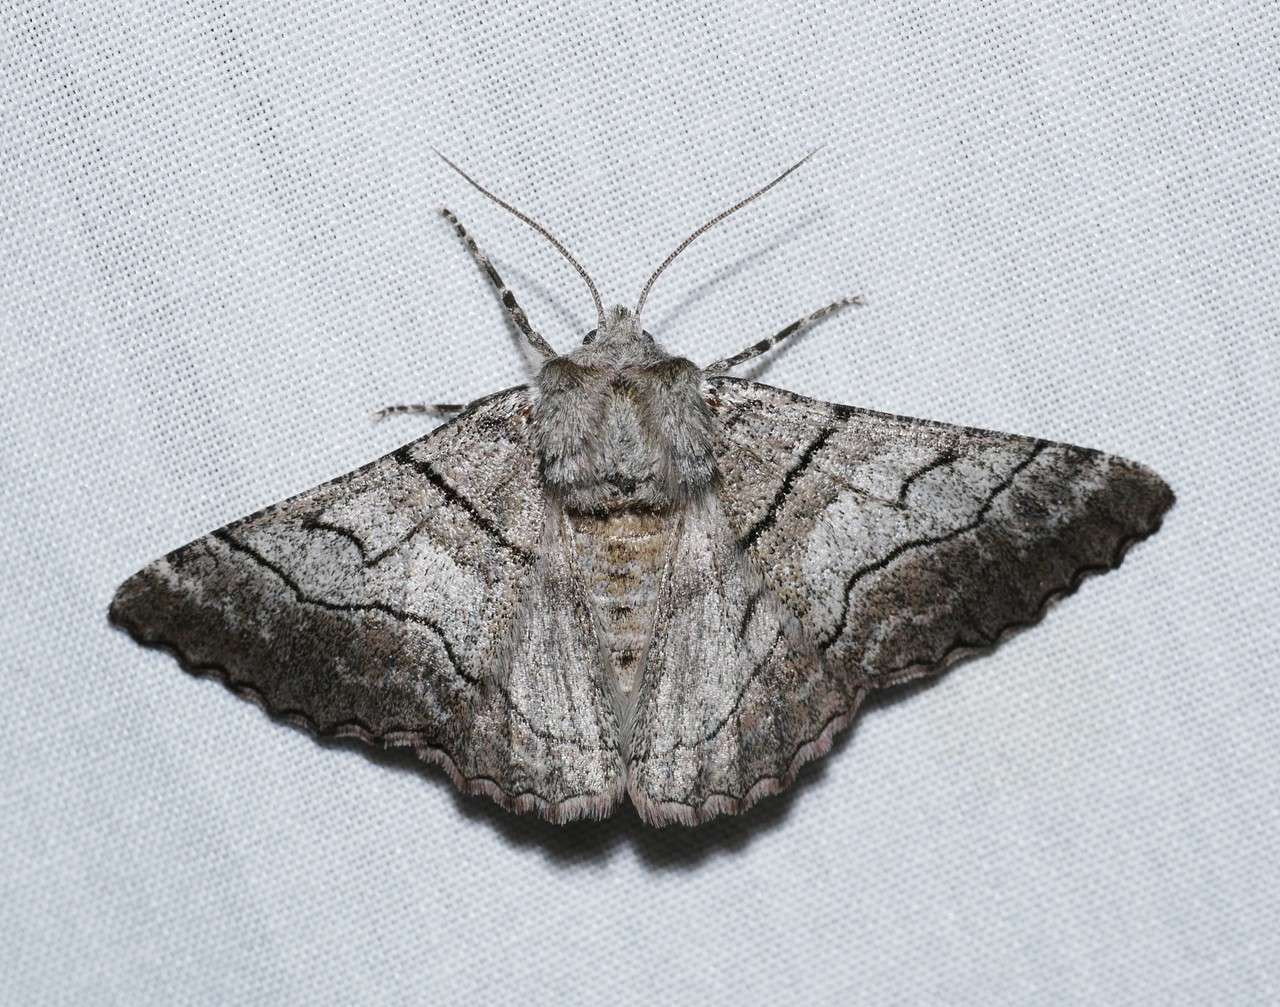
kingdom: Animalia
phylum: Arthropoda
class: Insecta
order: Lepidoptera
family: Geometridae
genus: Hypobapta
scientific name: Hypobapta diffundens
